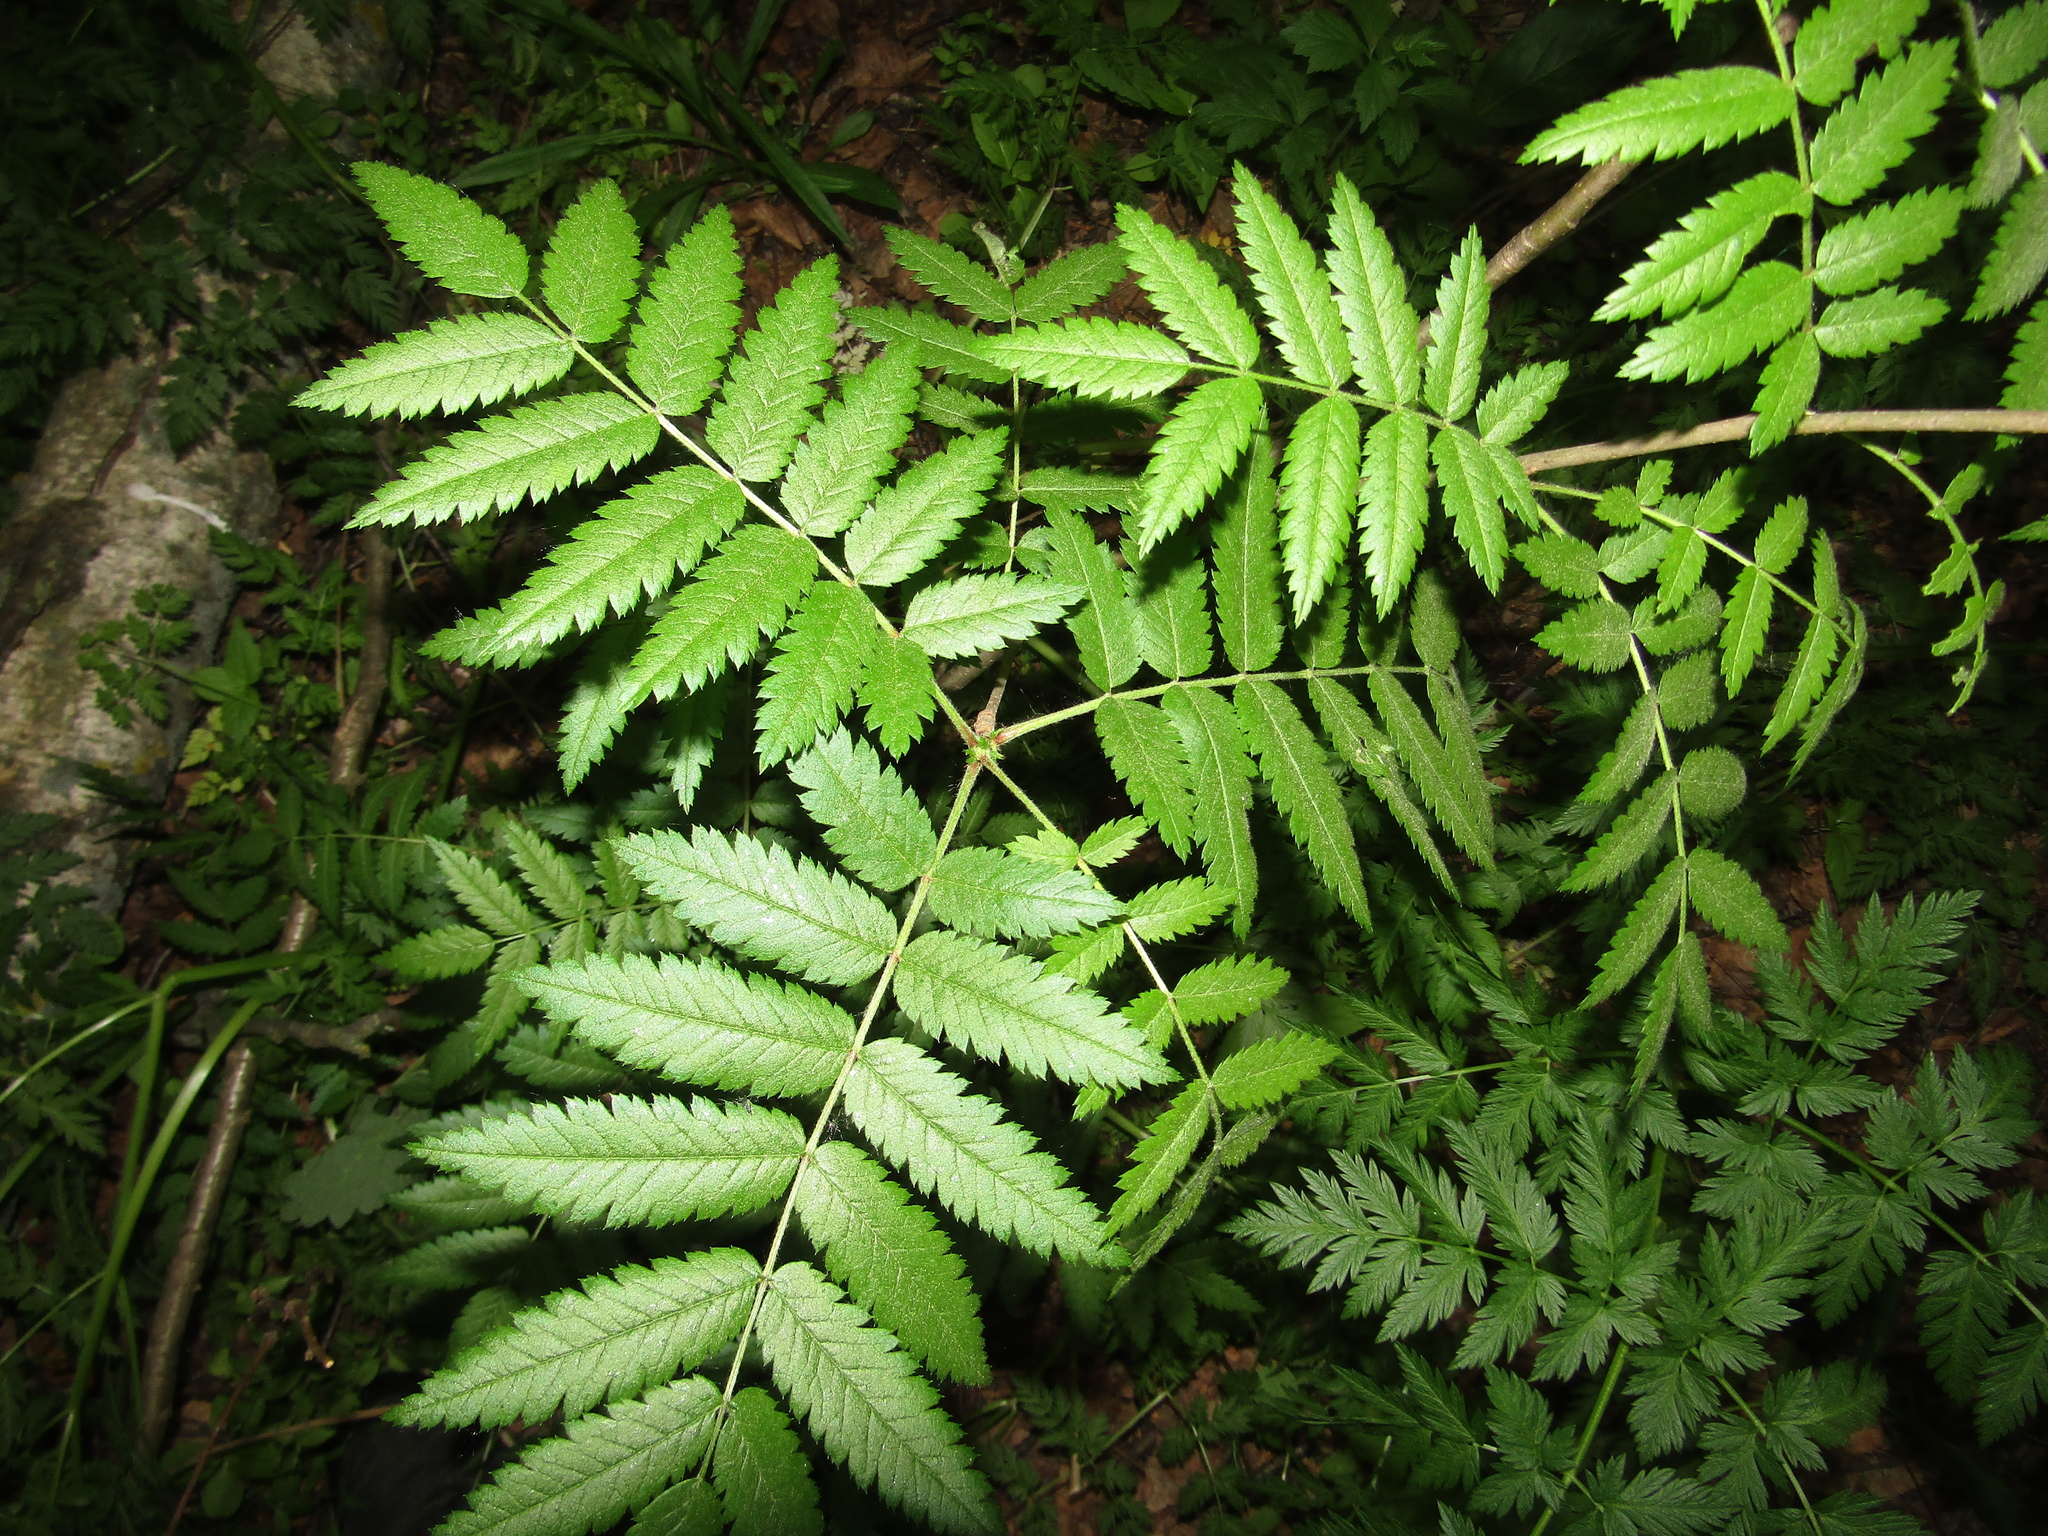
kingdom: Plantae
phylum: Tracheophyta
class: Magnoliopsida
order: Rosales
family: Rosaceae
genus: Sorbus
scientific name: Sorbus aucuparia
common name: Rowan
